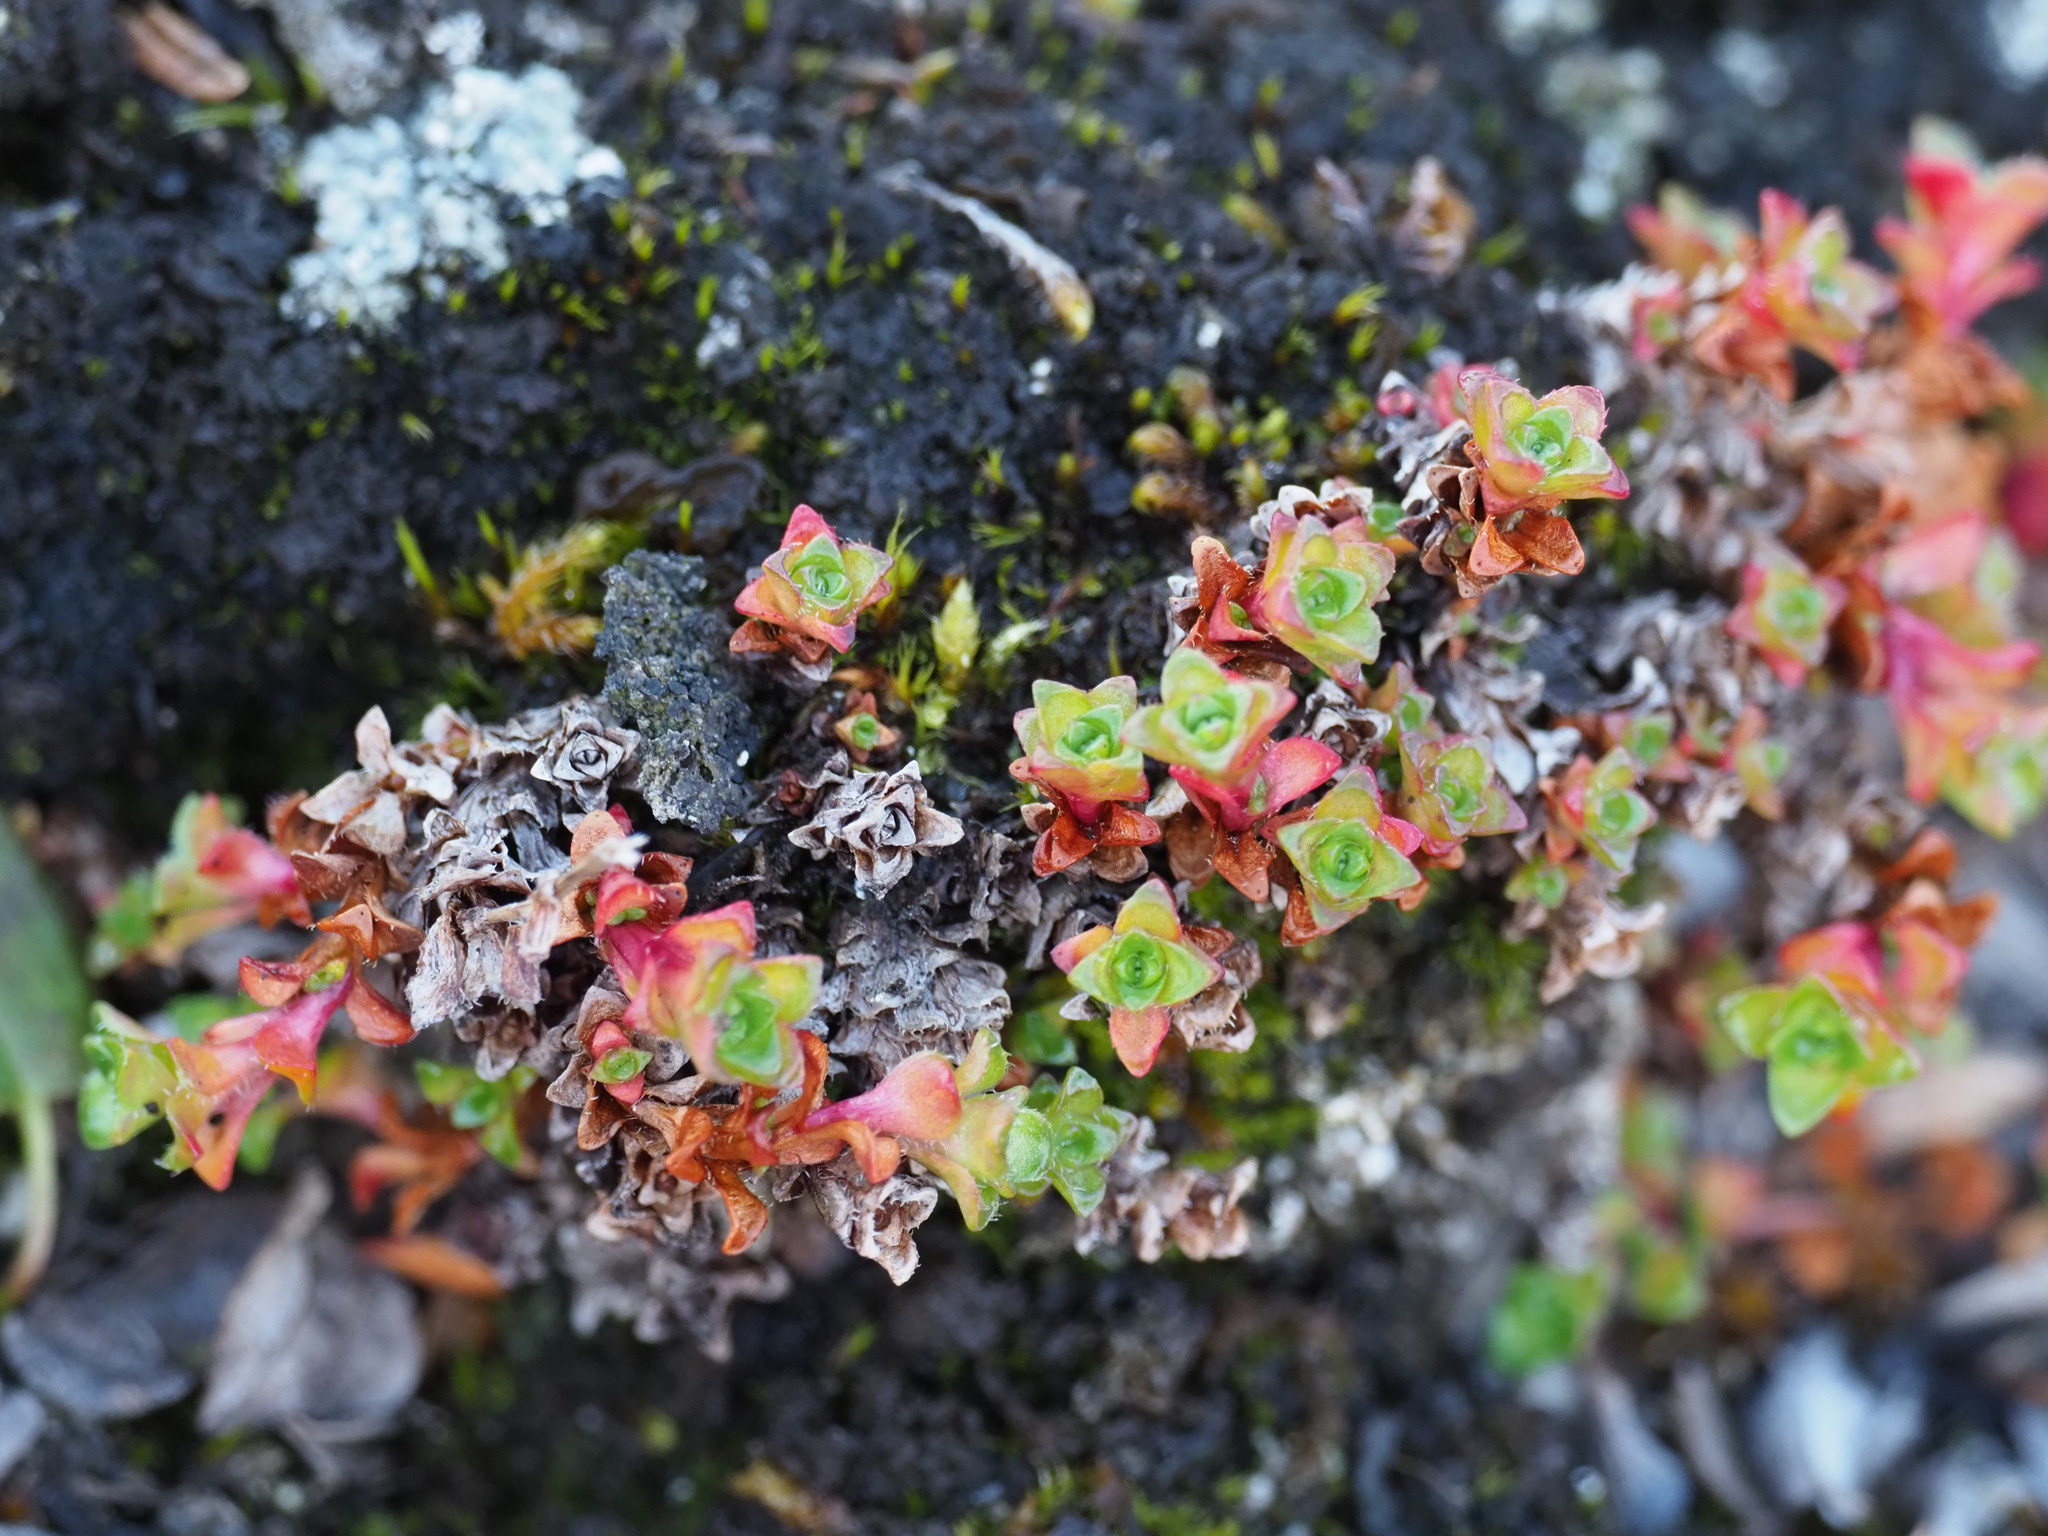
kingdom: Plantae
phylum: Tracheophyta
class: Magnoliopsida
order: Saxifragales
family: Saxifragaceae
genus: Saxifraga
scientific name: Saxifraga oppositifolia
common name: Purple saxifrage
